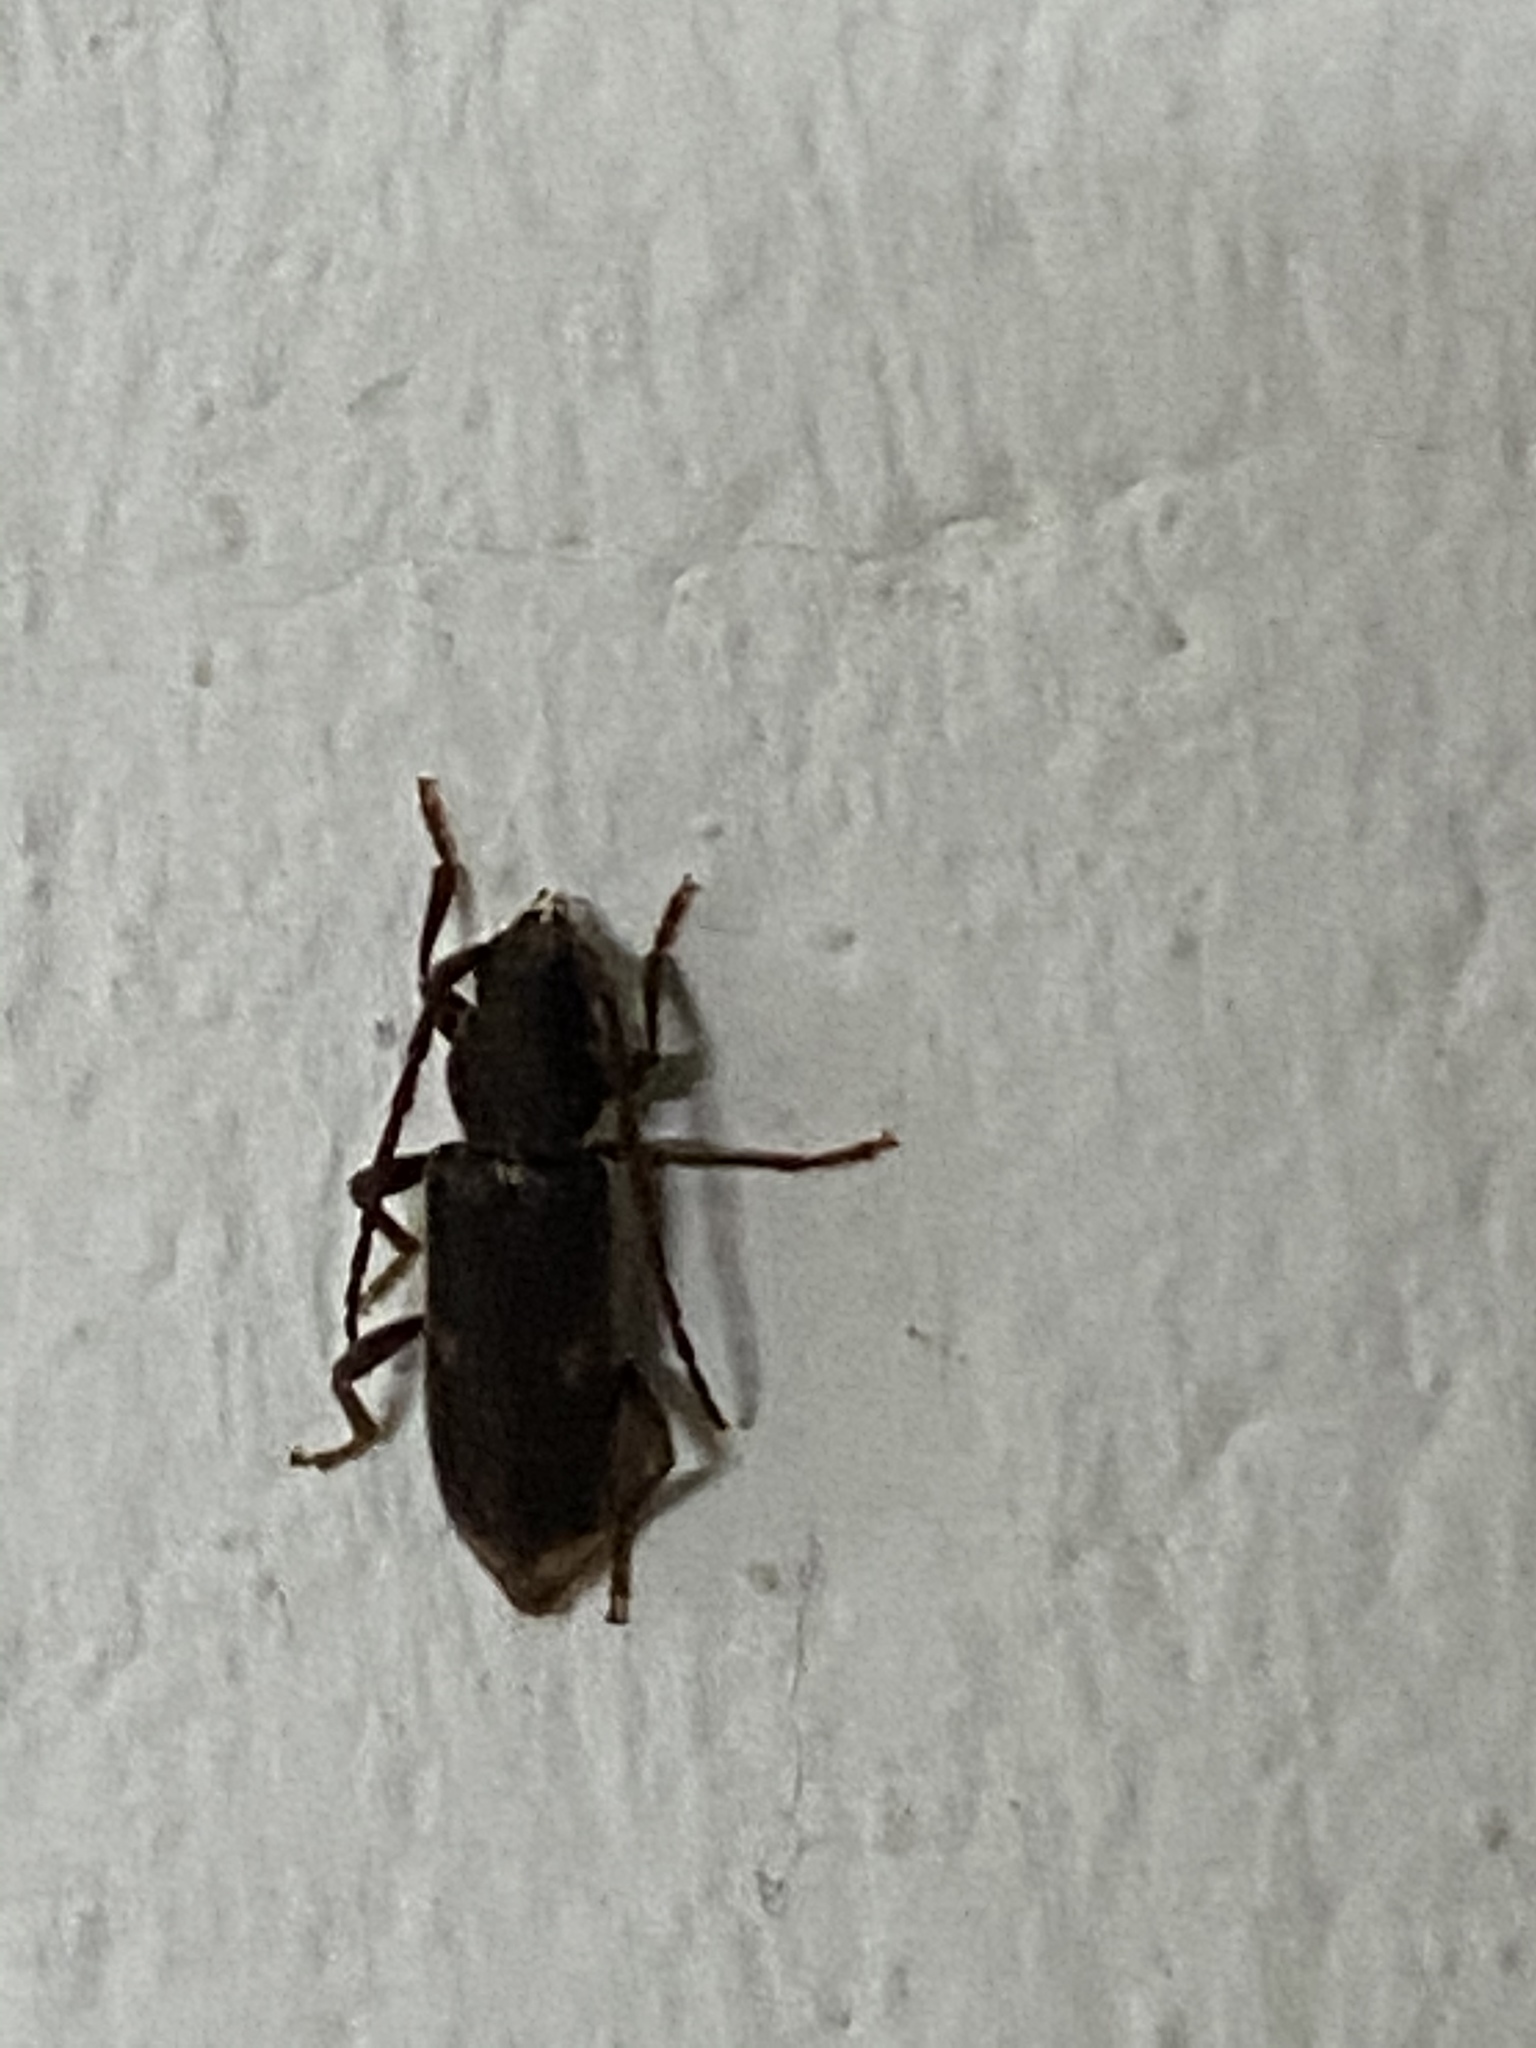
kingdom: Animalia
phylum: Arthropoda
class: Insecta
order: Coleoptera
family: Cerambycidae
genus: Zamium
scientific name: Zamium bimaculatum
